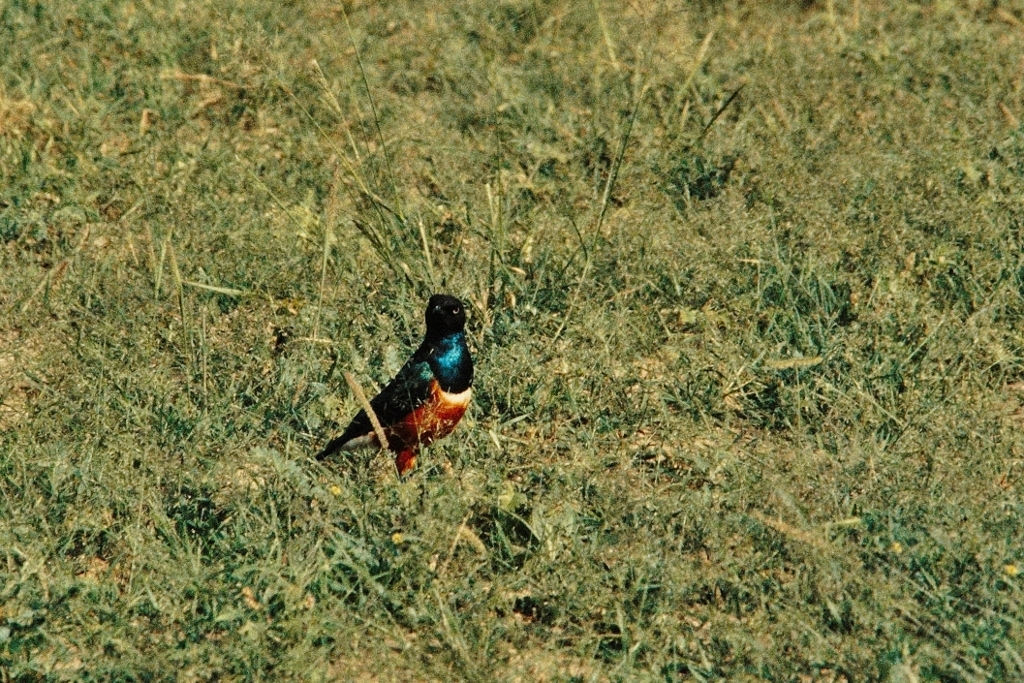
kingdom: Animalia
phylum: Chordata
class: Aves
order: Passeriformes
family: Sturnidae
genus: Lamprotornis
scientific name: Lamprotornis superbus
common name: Superb starling
